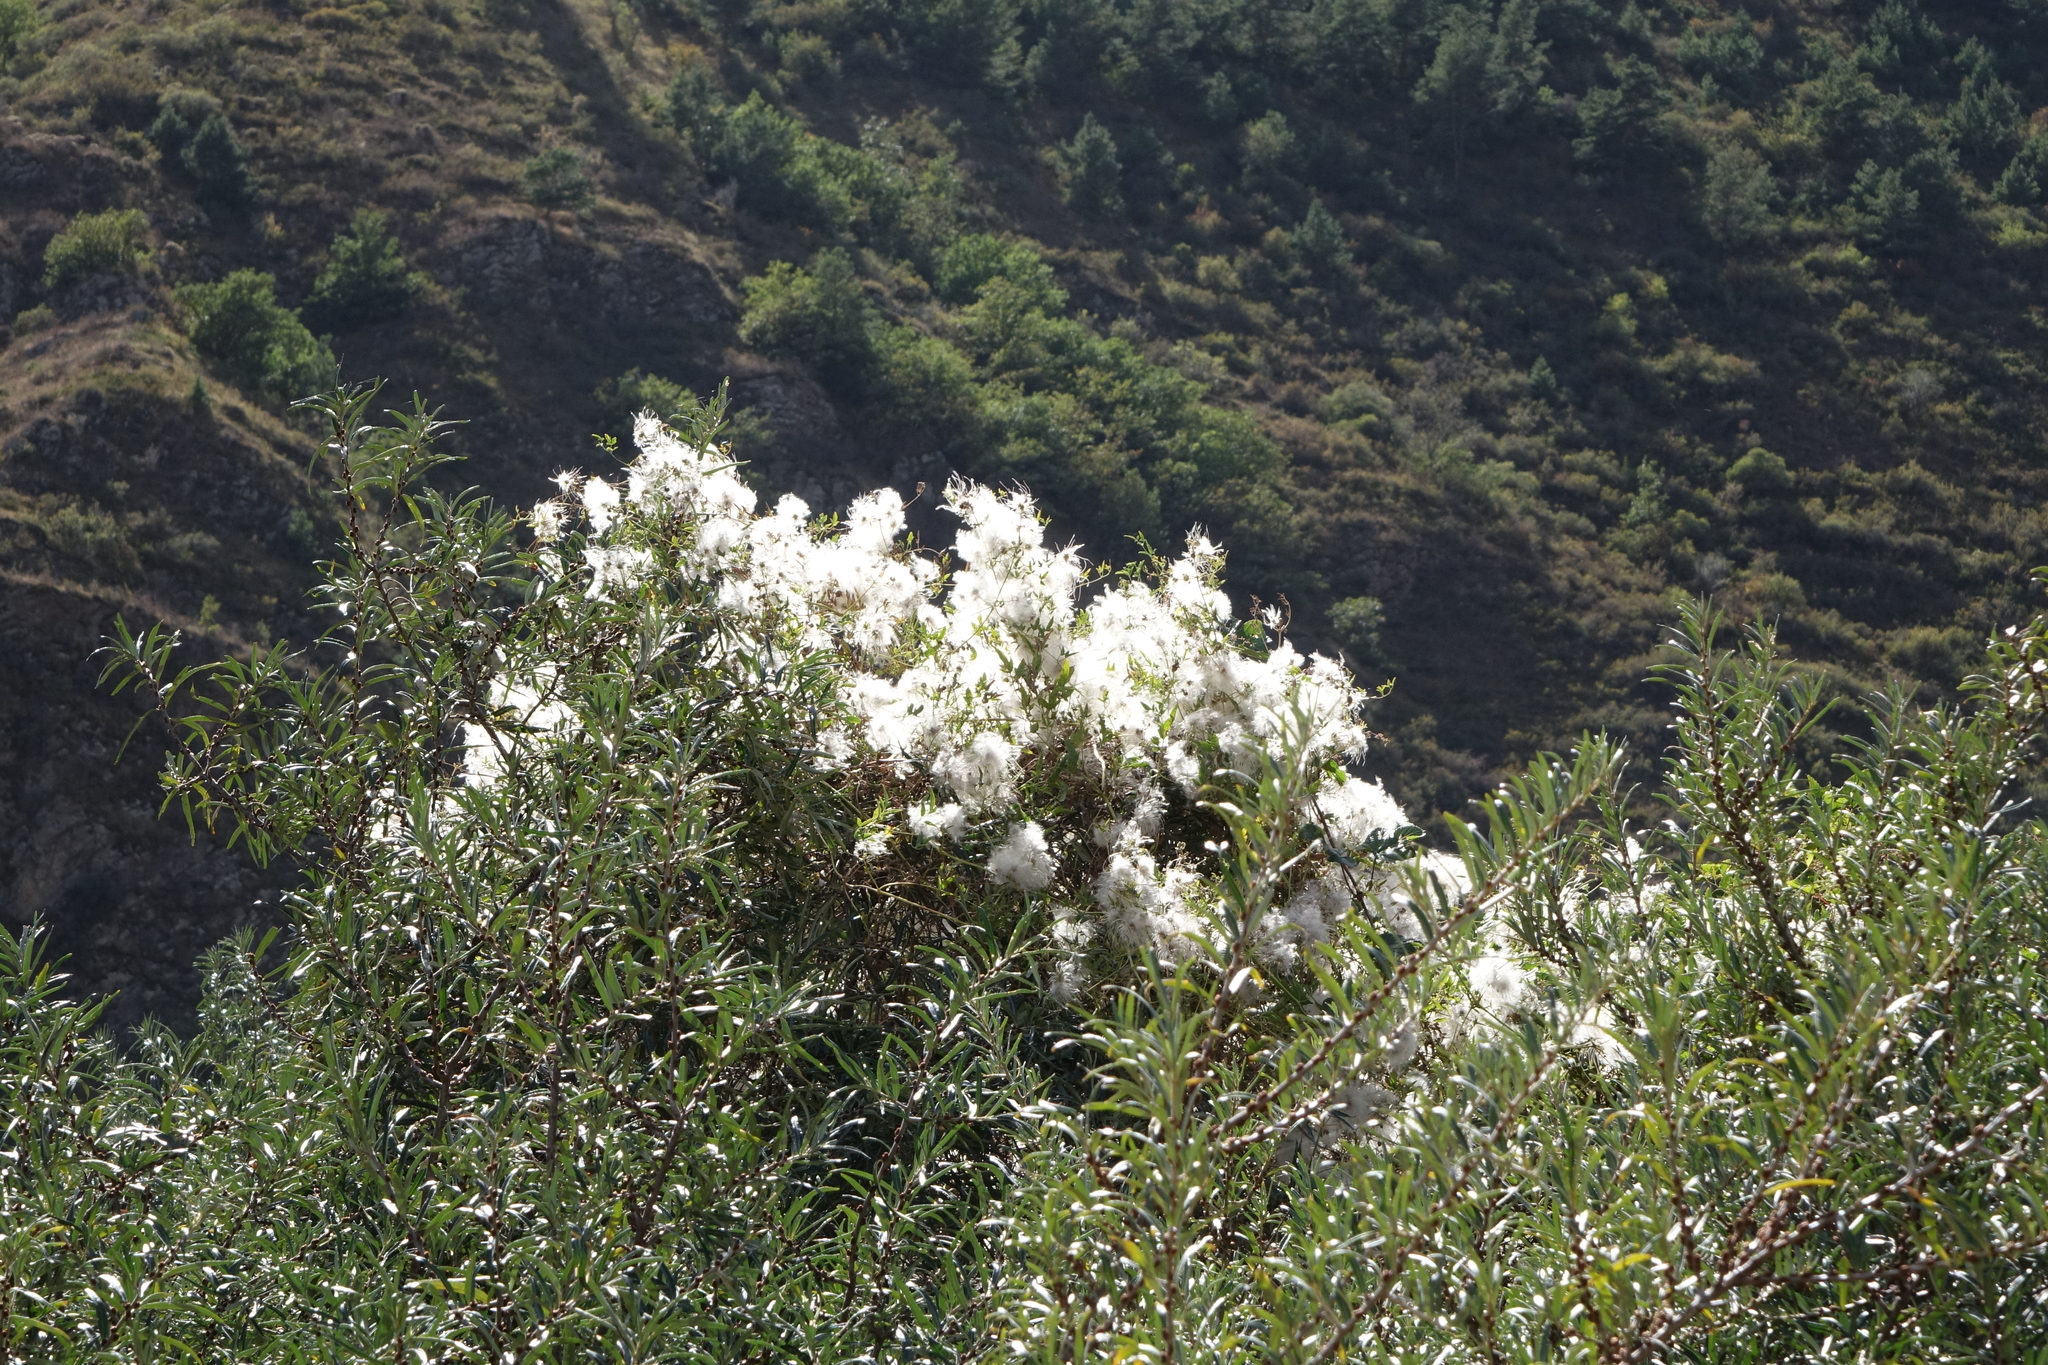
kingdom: Plantae
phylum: Tracheophyta
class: Magnoliopsida
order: Ranunculales
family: Ranunculaceae
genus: Clematis
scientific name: Clematis orientalis
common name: Oriental virgin's-bower
